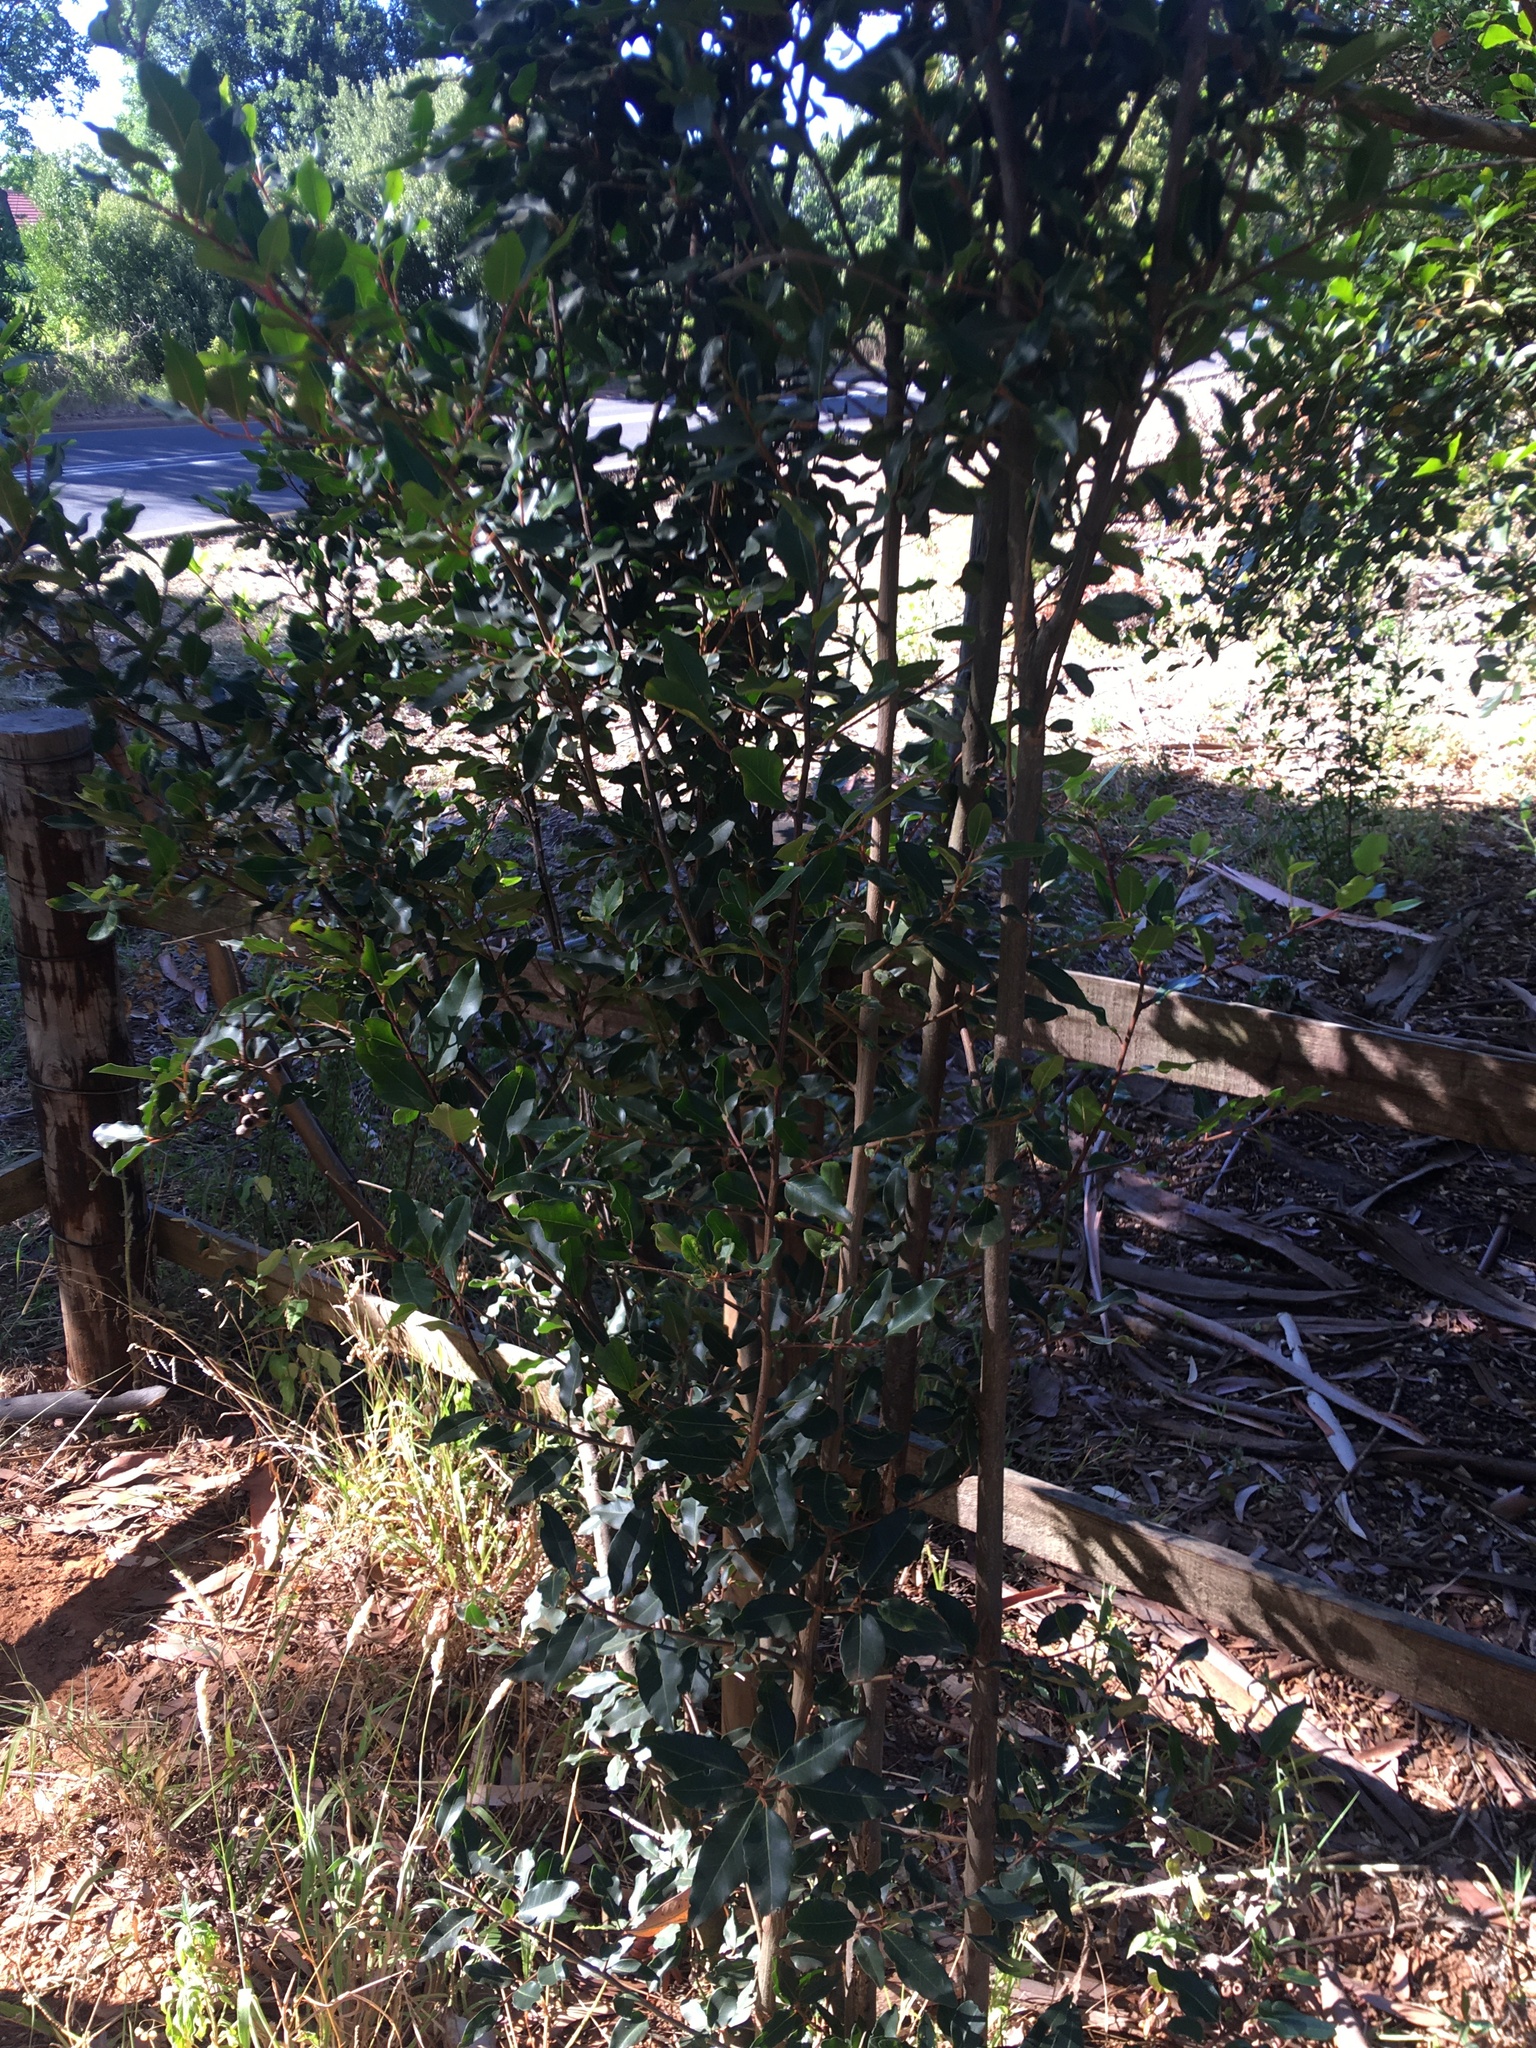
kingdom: Plantae
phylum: Tracheophyta
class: Magnoliopsida
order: Metteniusales
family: Metteniusaceae
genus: Apodytes
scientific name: Apodytes dimidiata
